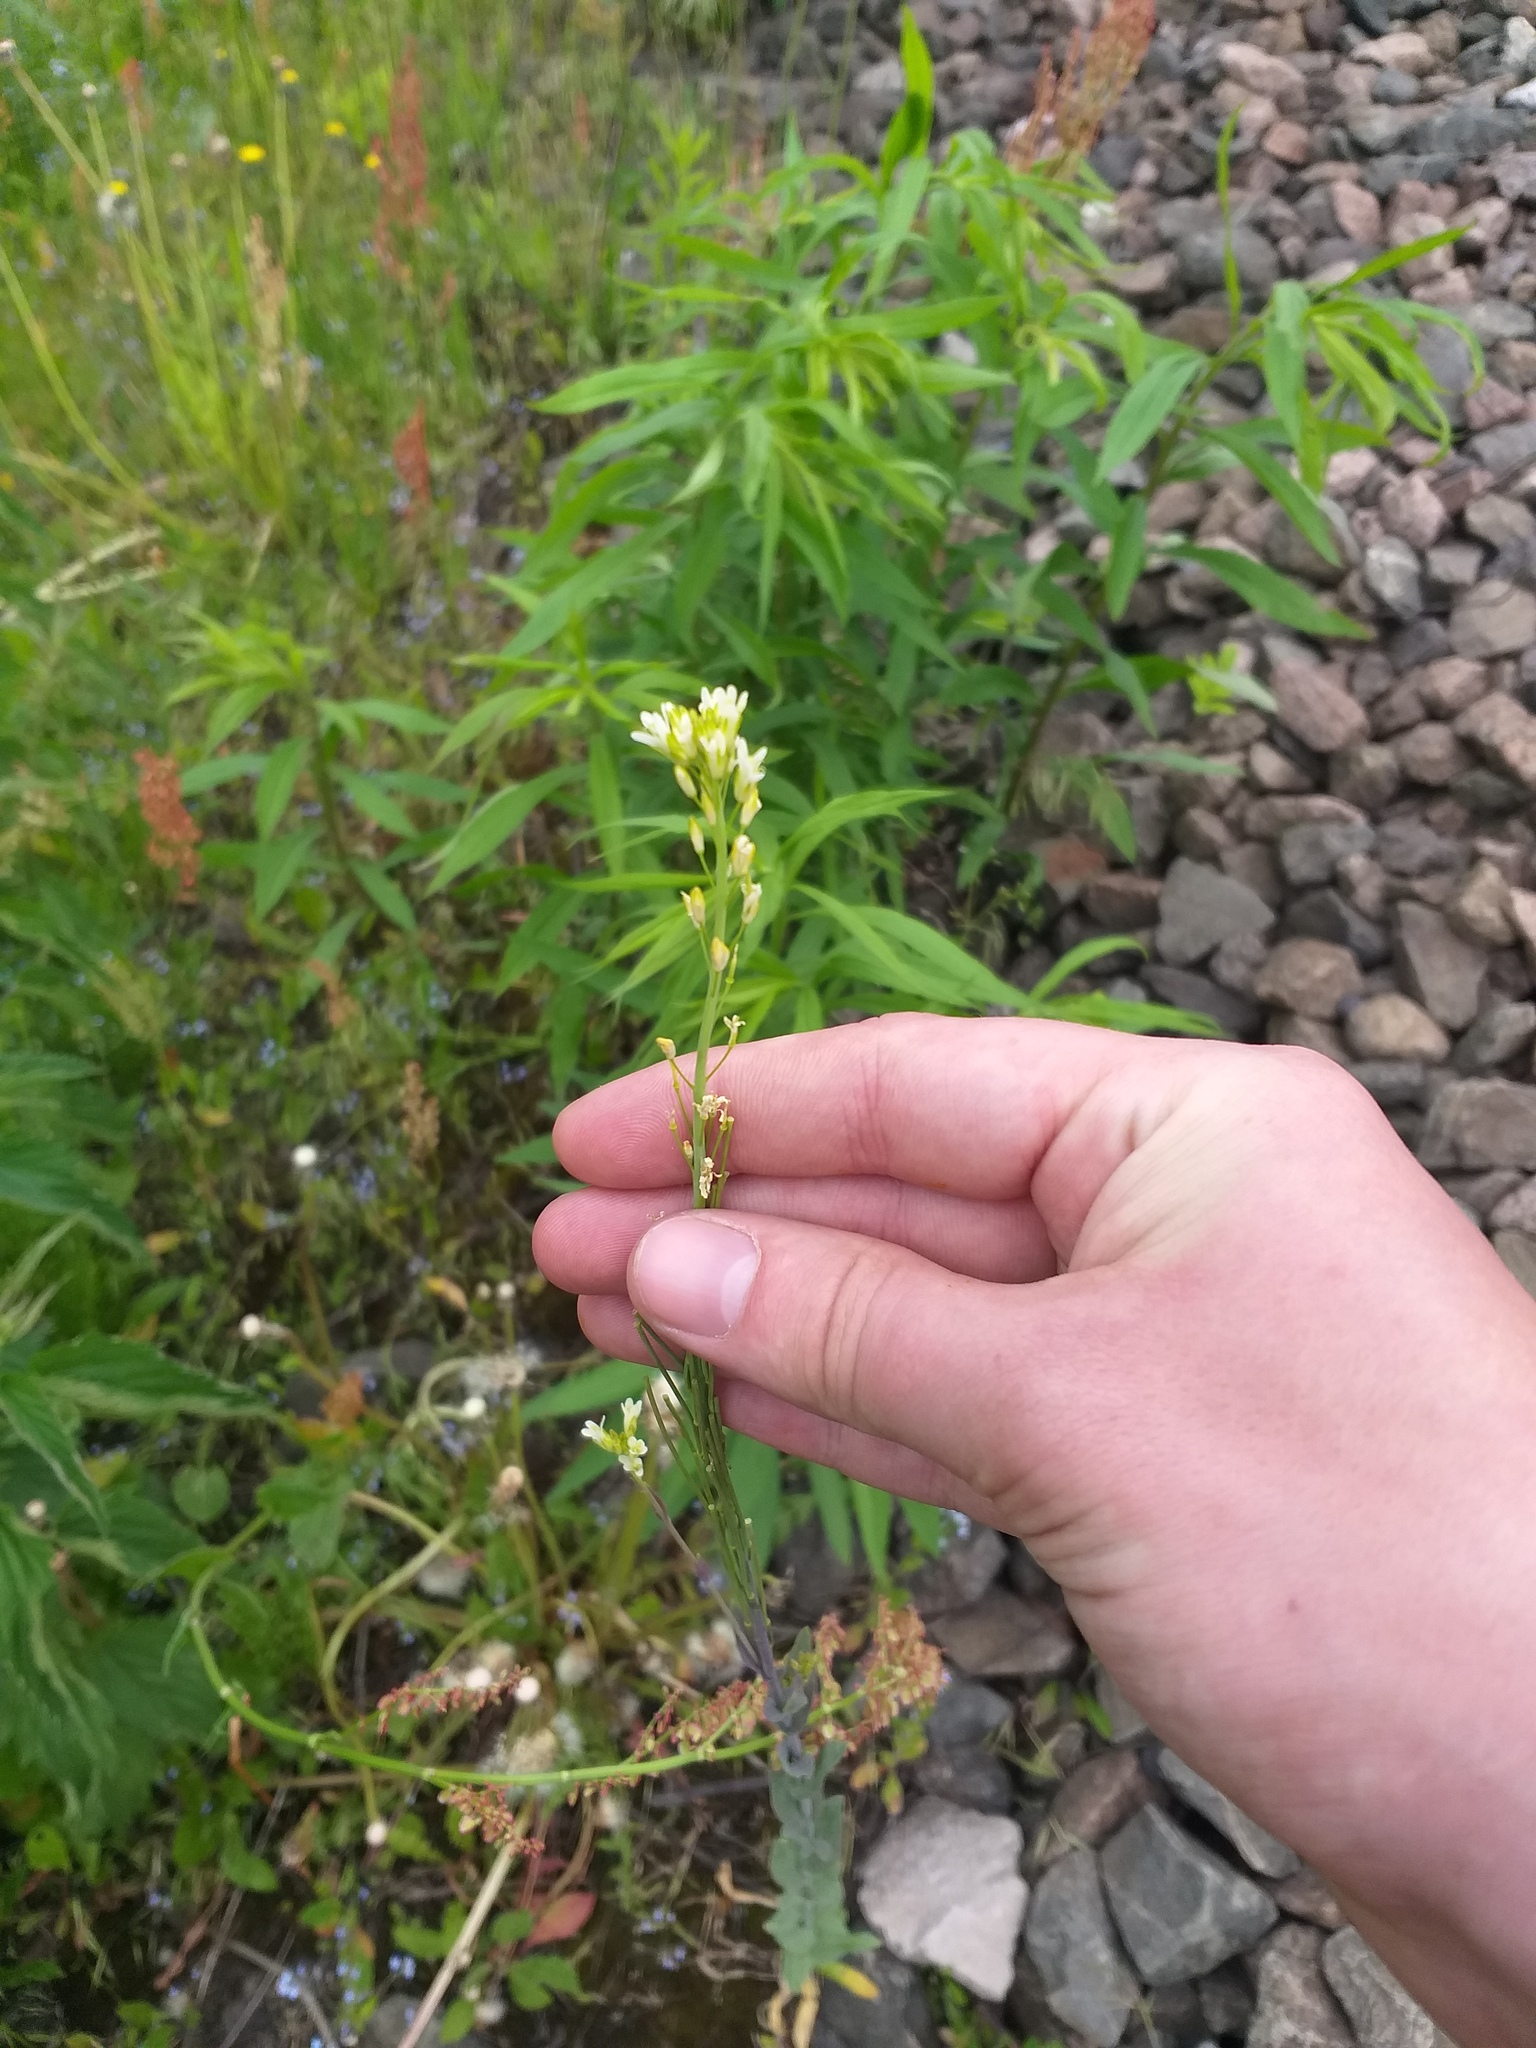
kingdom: Plantae
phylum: Tracheophyta
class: Magnoliopsida
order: Brassicales
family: Brassicaceae
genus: Turritis
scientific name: Turritis glabra
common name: Tower rockcress
